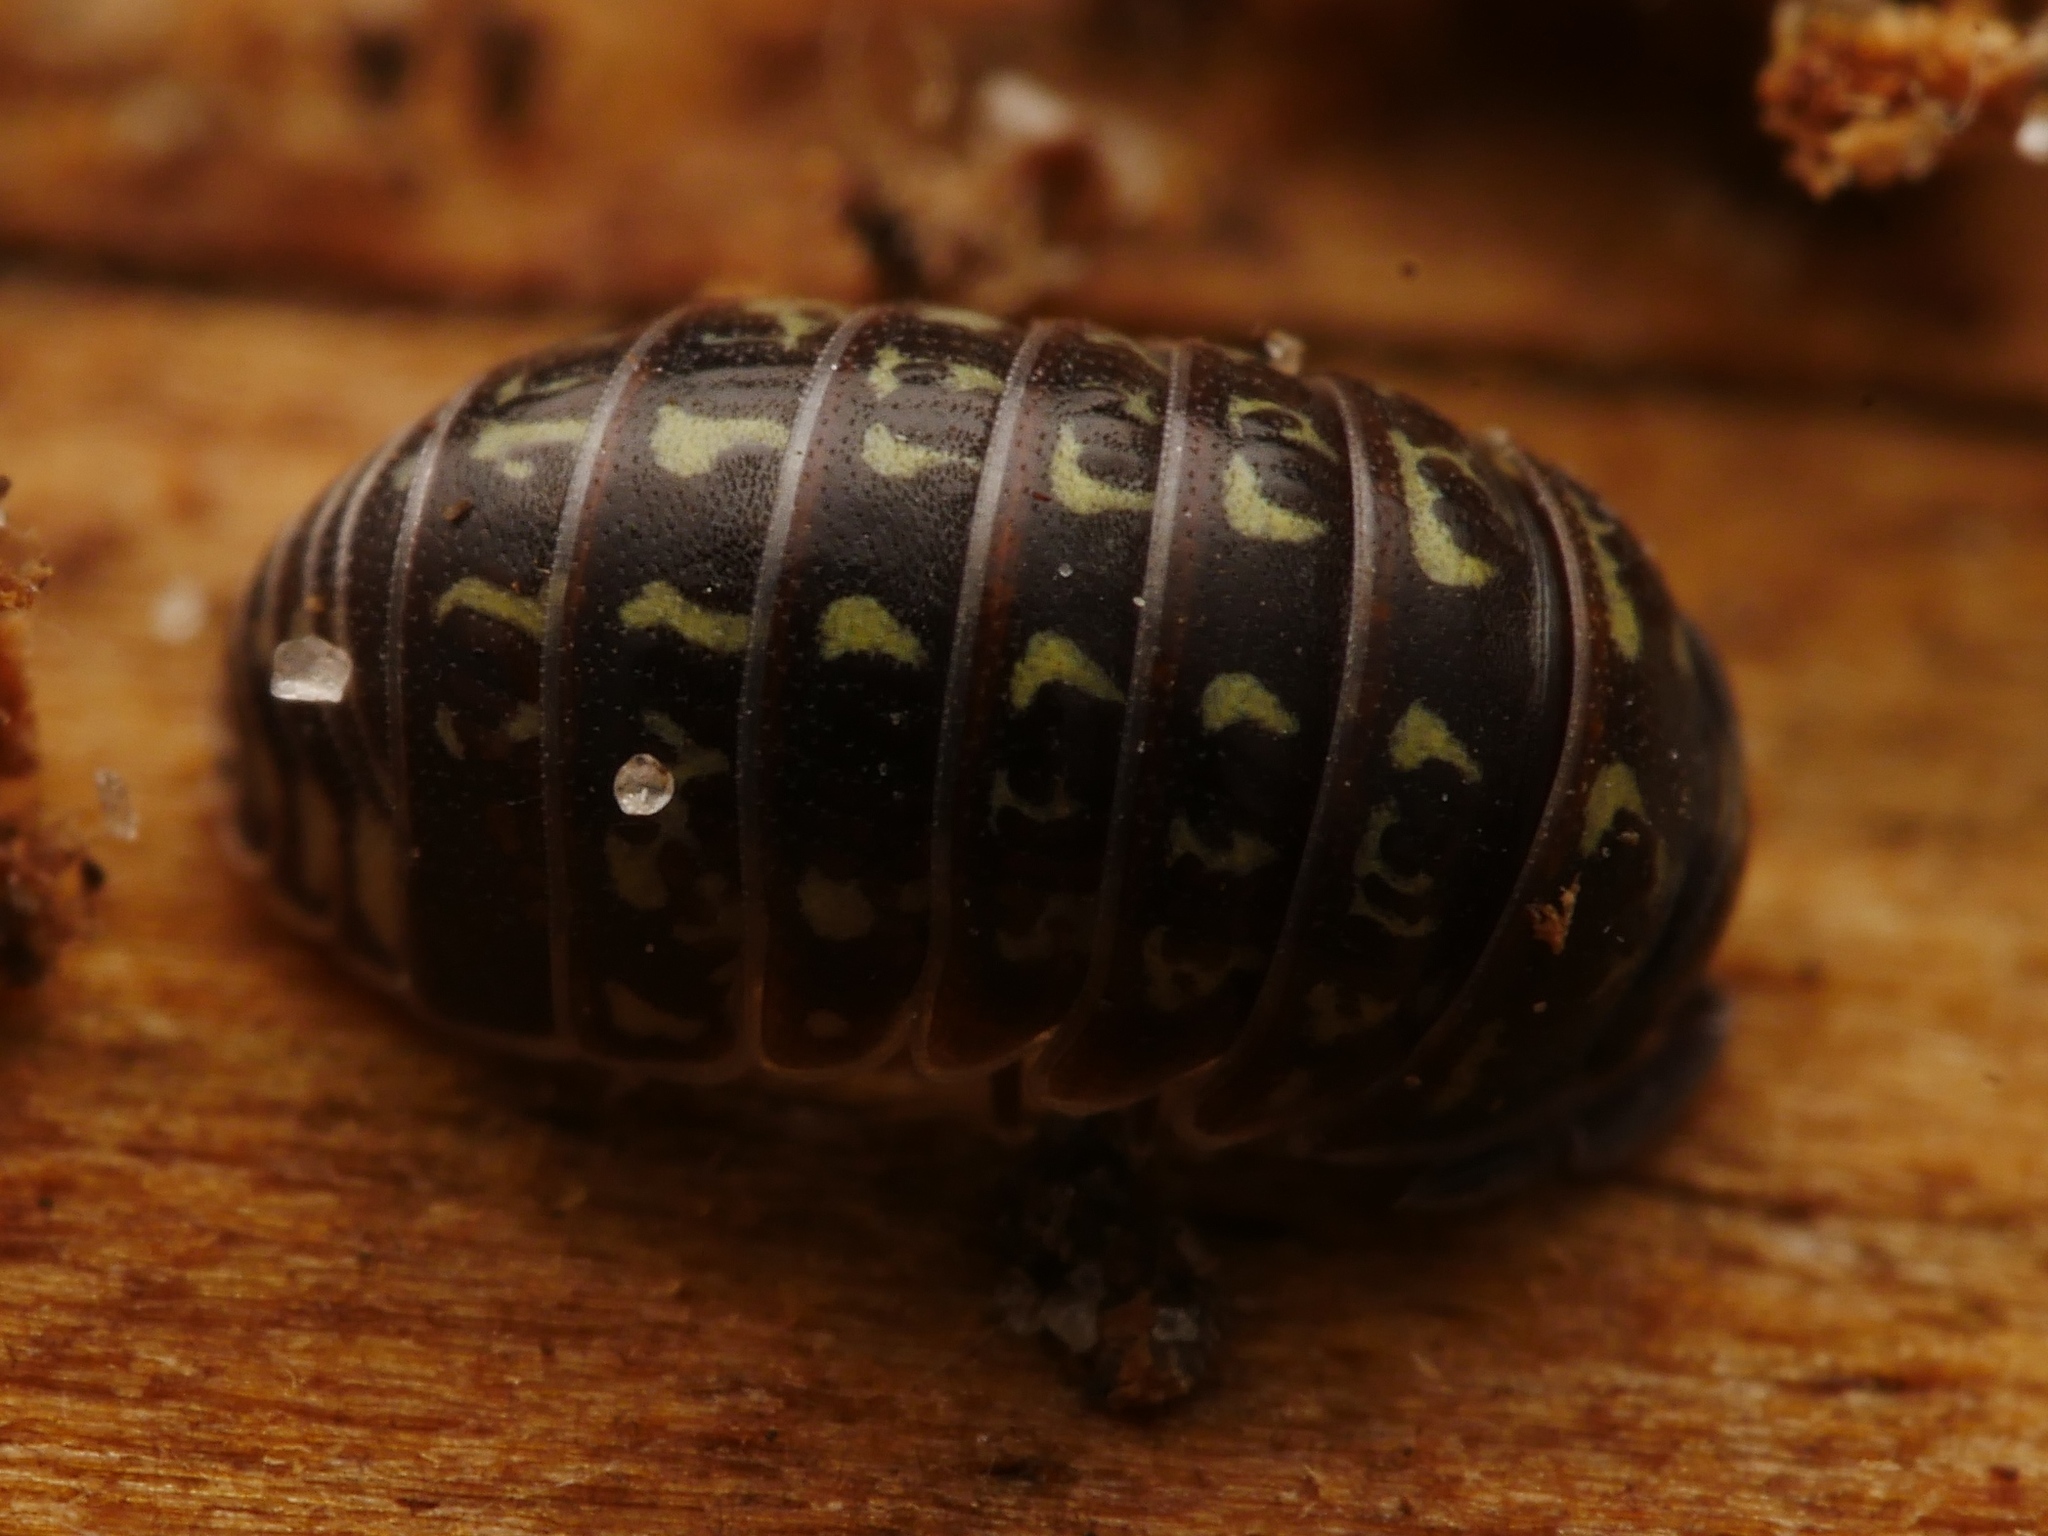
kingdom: Animalia
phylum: Arthropoda
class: Malacostraca
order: Isopoda
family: Armadillidiidae
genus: Armadillidium
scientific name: Armadillidium pulchellum
